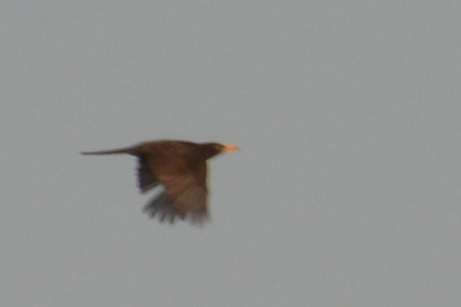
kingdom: Animalia
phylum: Chordata
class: Aves
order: Passeriformes
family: Turdidae
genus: Turdus
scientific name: Turdus chiguanco
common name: Chiguanco thrush
